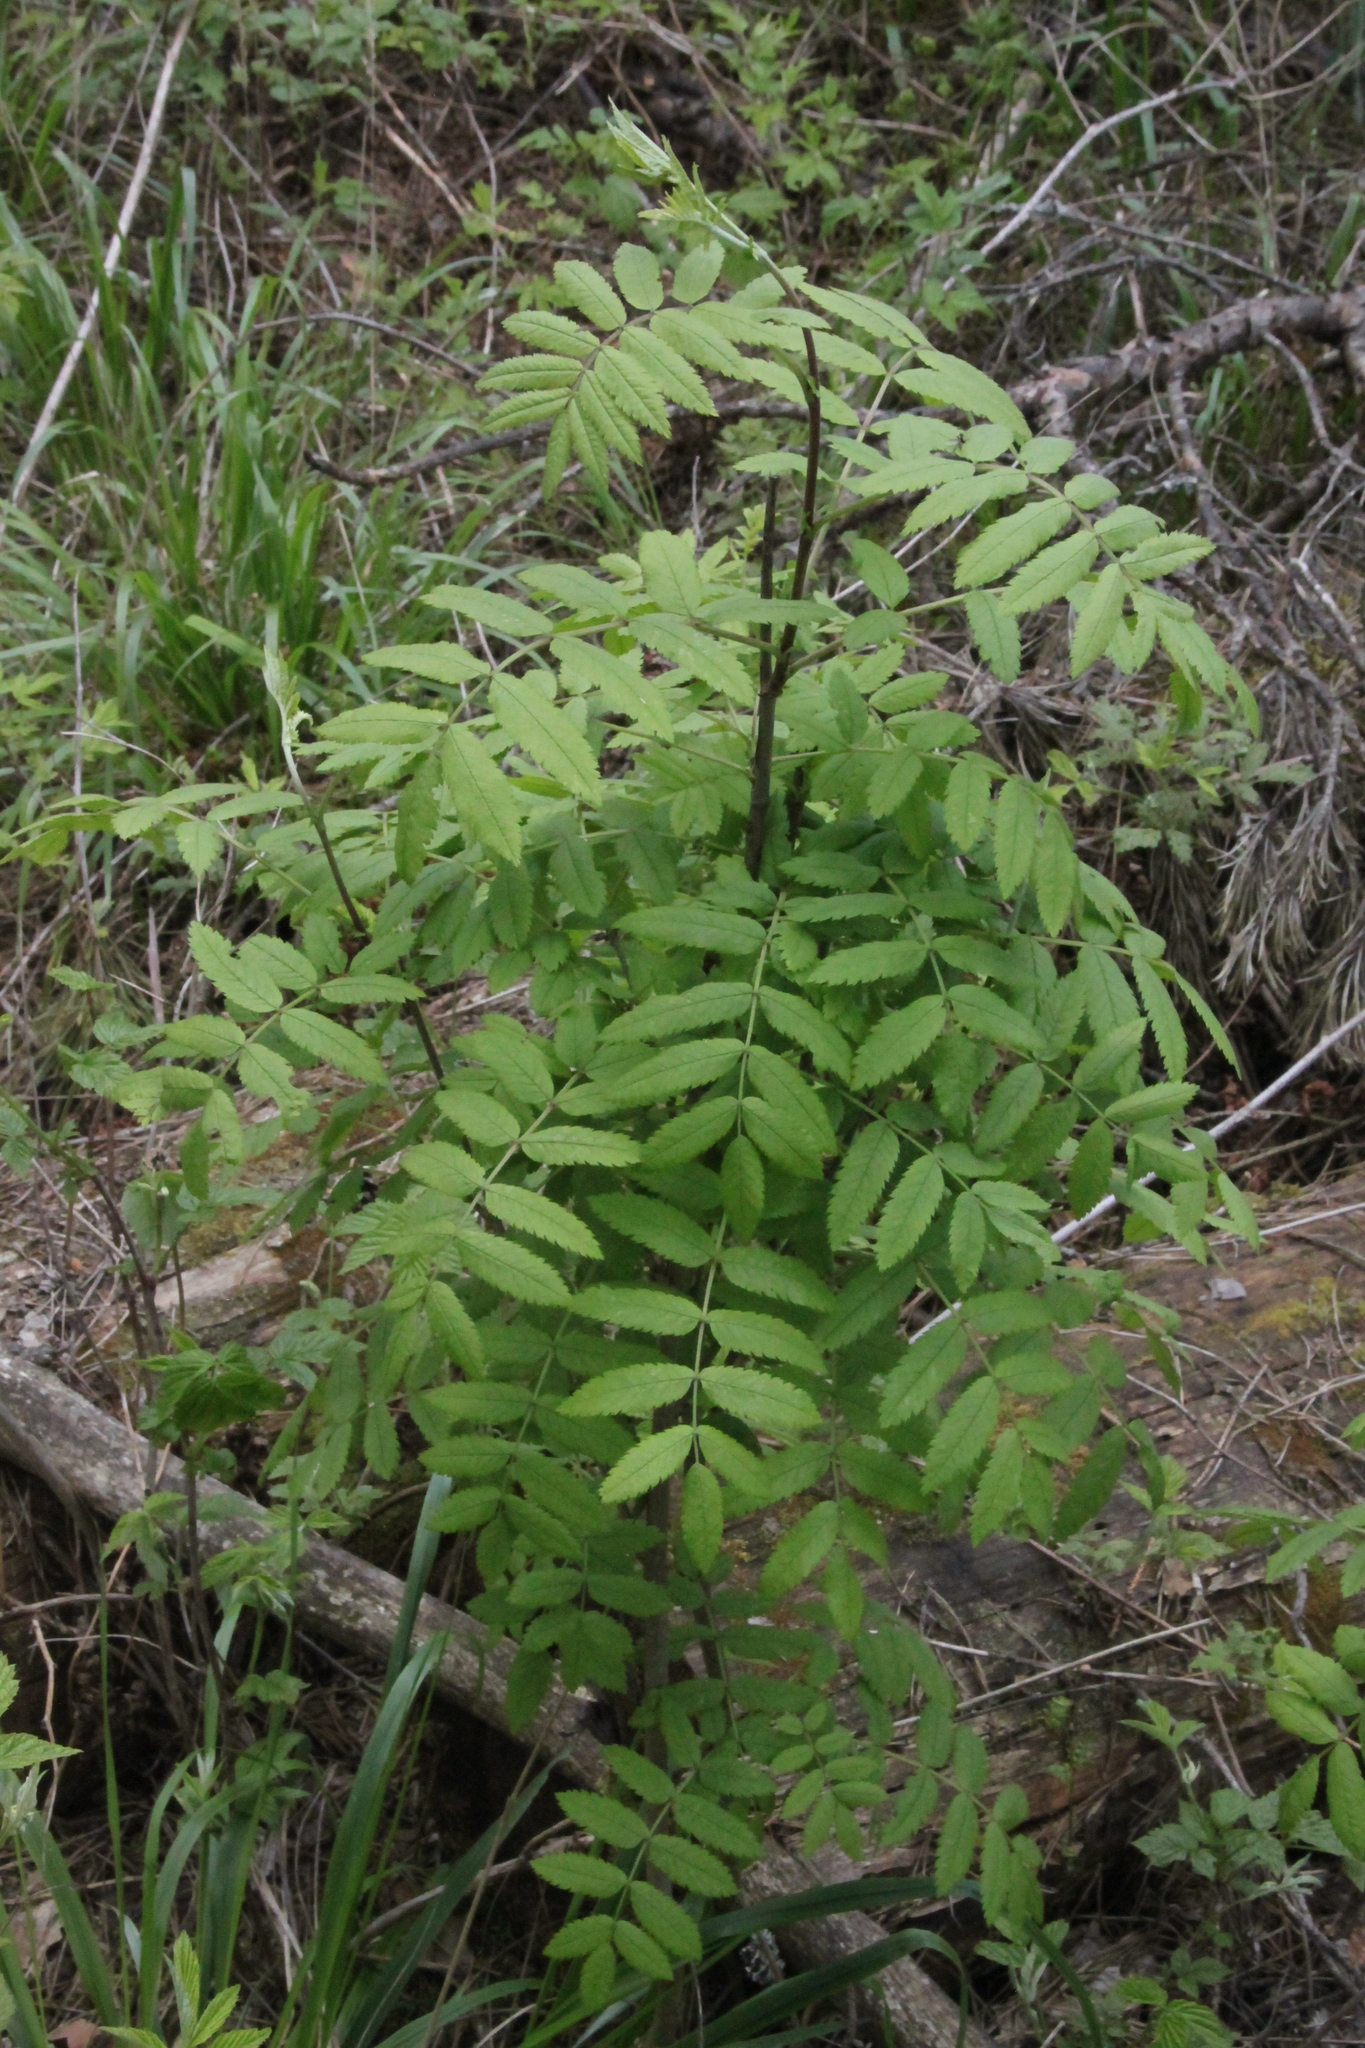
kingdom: Plantae
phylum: Tracheophyta
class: Magnoliopsida
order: Rosales
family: Rosaceae
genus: Sorbus
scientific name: Sorbus aucuparia
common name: Rowan
